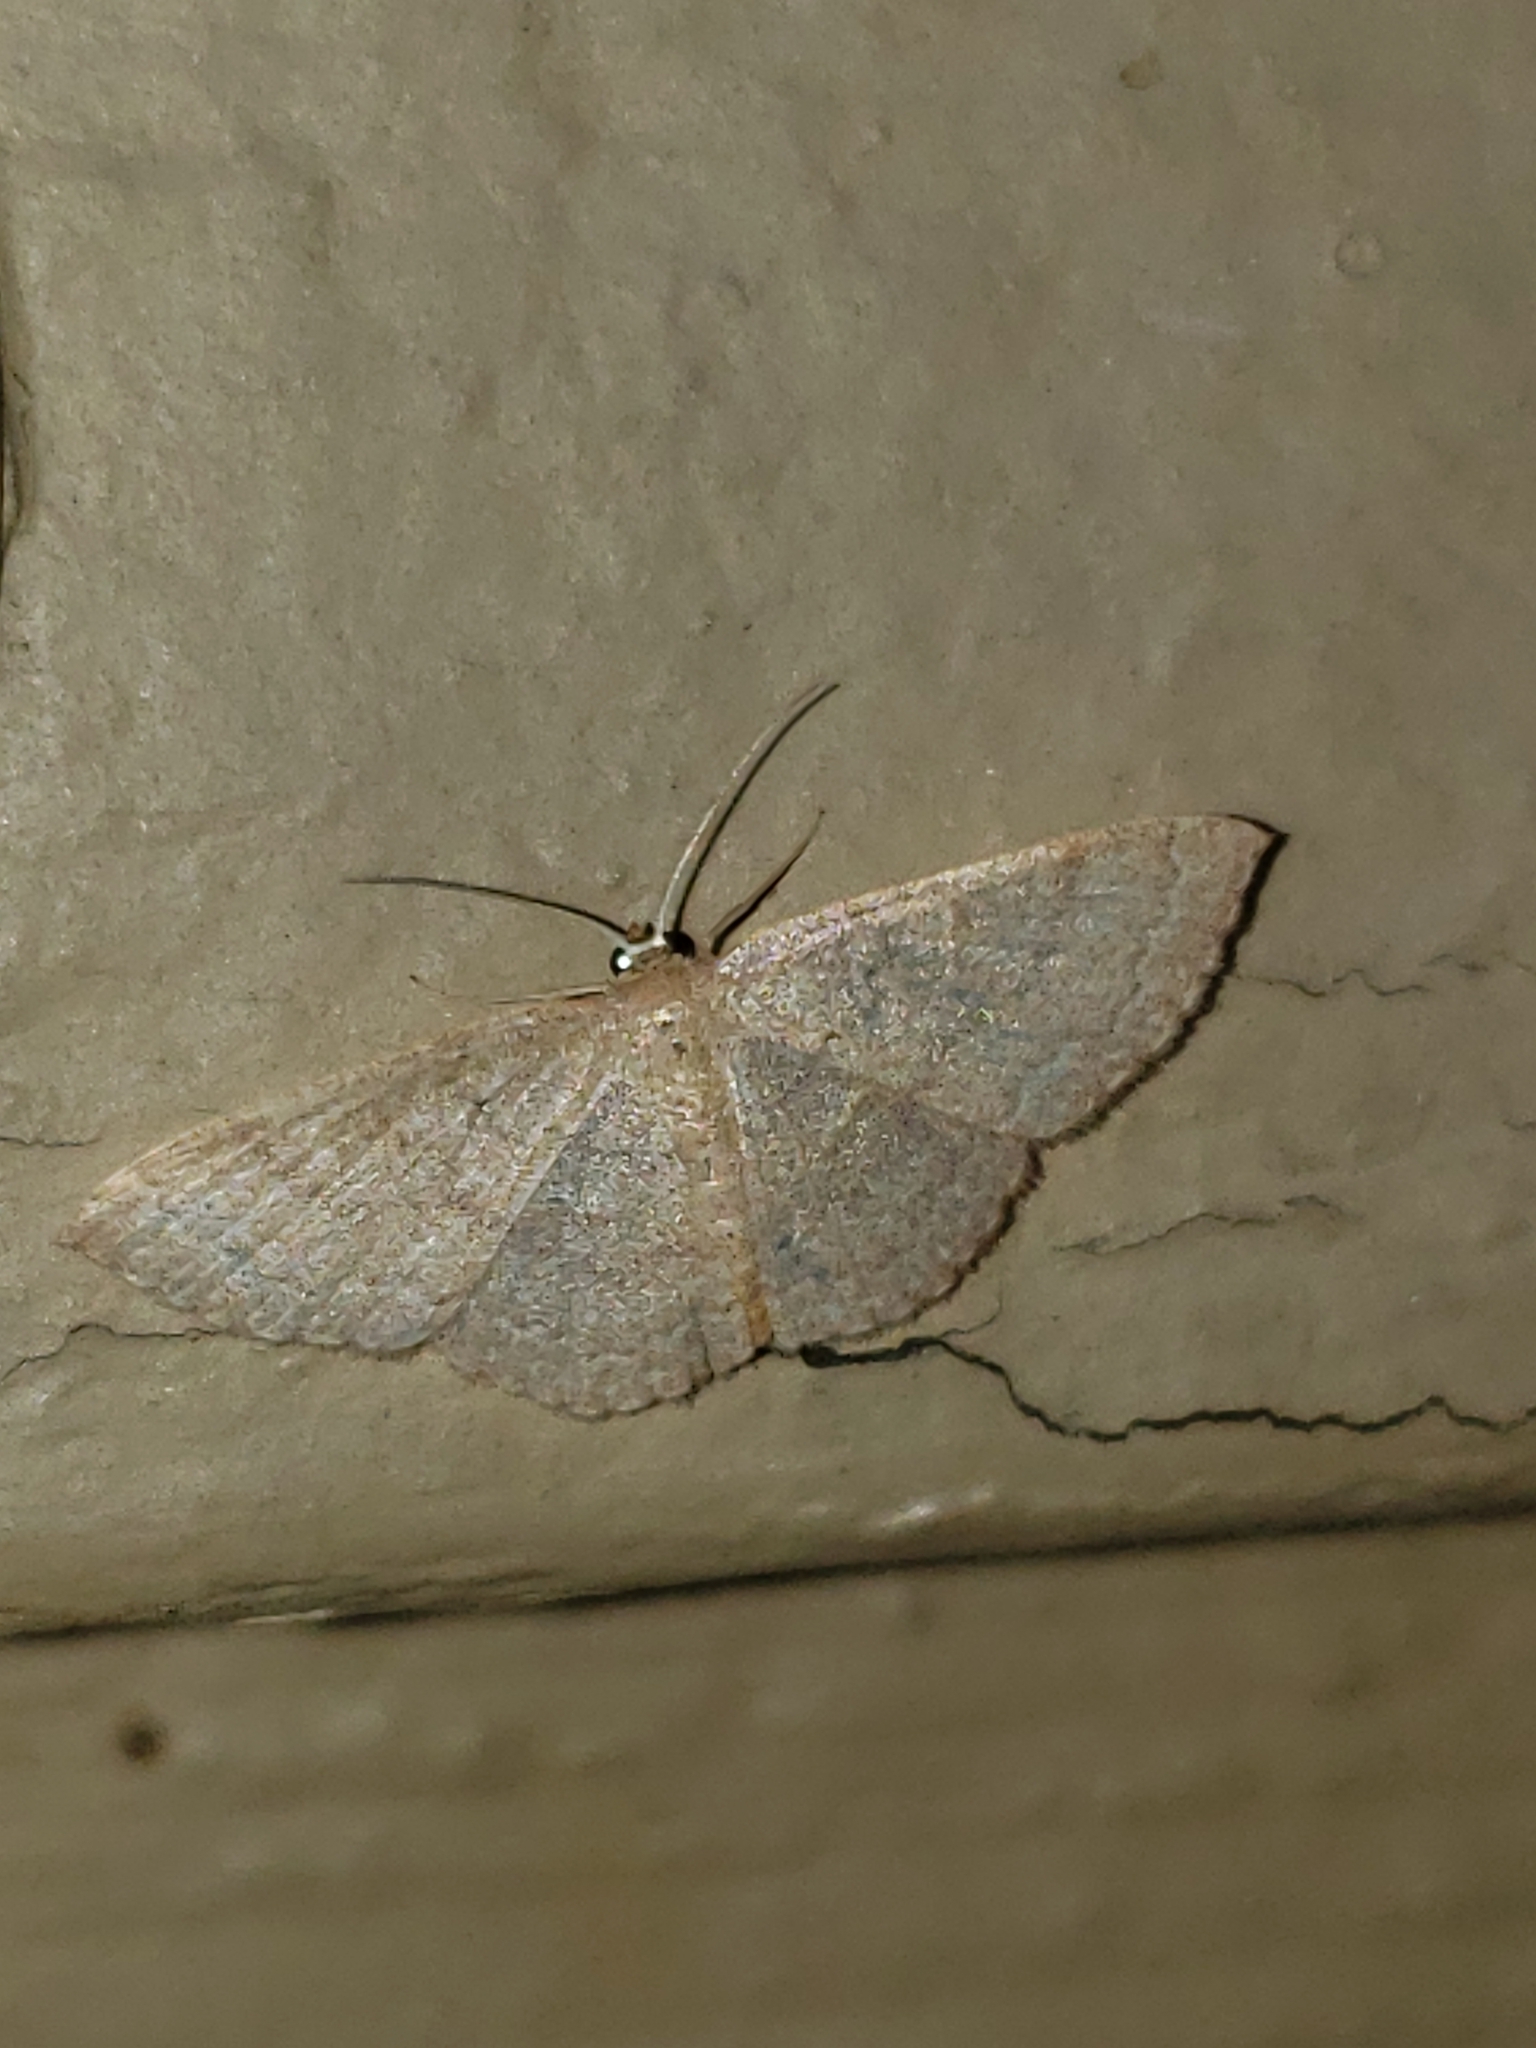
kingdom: Animalia
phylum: Arthropoda
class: Insecta
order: Lepidoptera
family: Geometridae
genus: Pleuroprucha
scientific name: Pleuroprucha insulsaria
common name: Common tan wave
